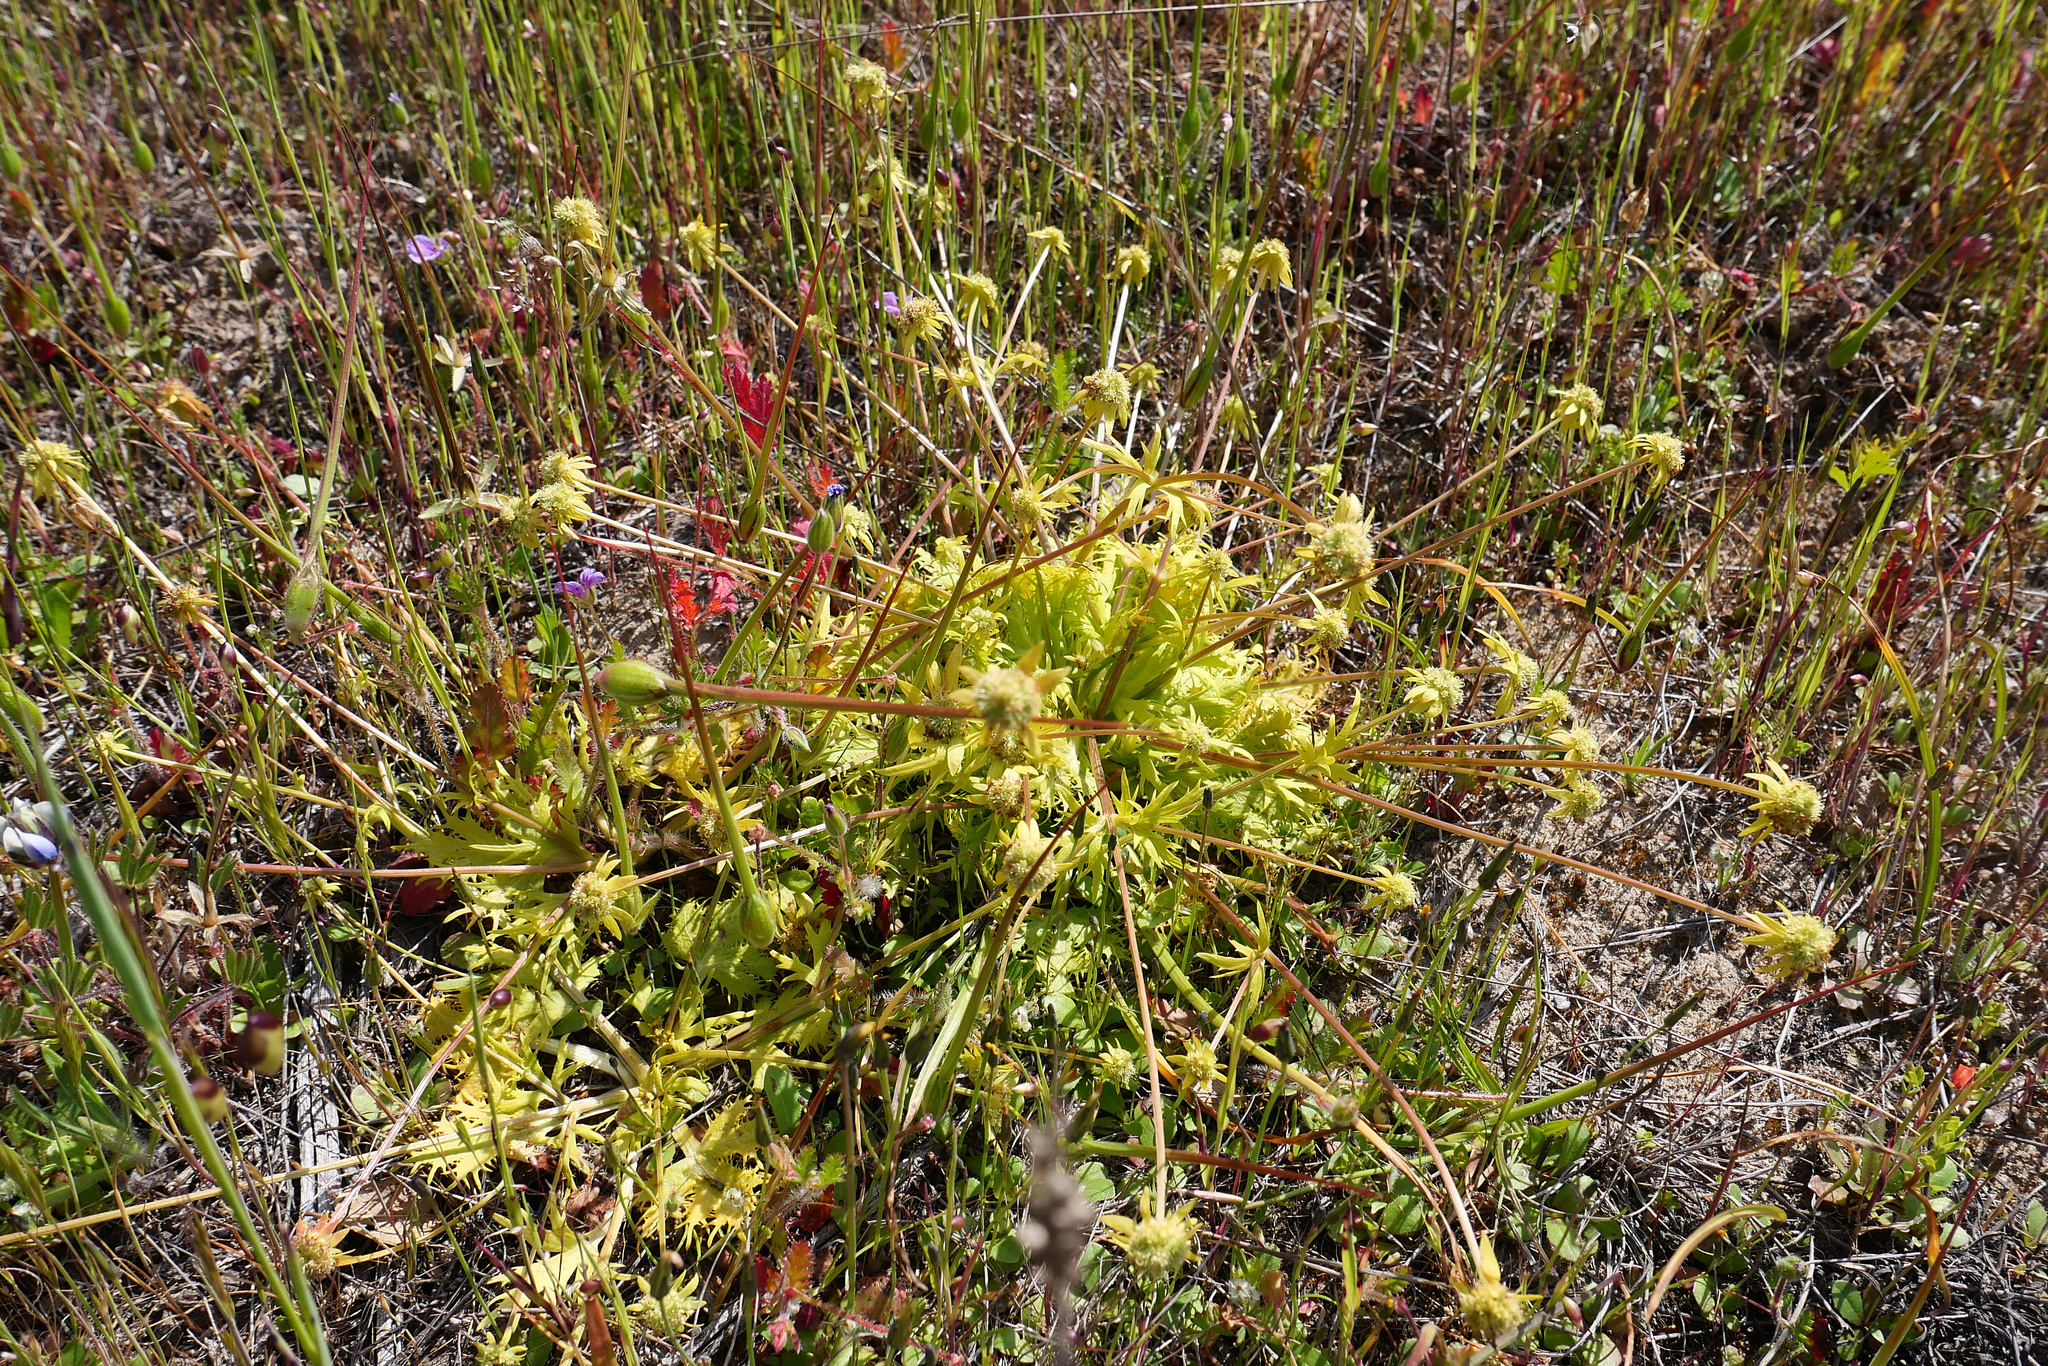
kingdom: Plantae
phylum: Tracheophyta
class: Magnoliopsida
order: Apiales
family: Apiaceae
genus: Sanicula
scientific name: Sanicula arctopoides
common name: Footsteps-of-spring
